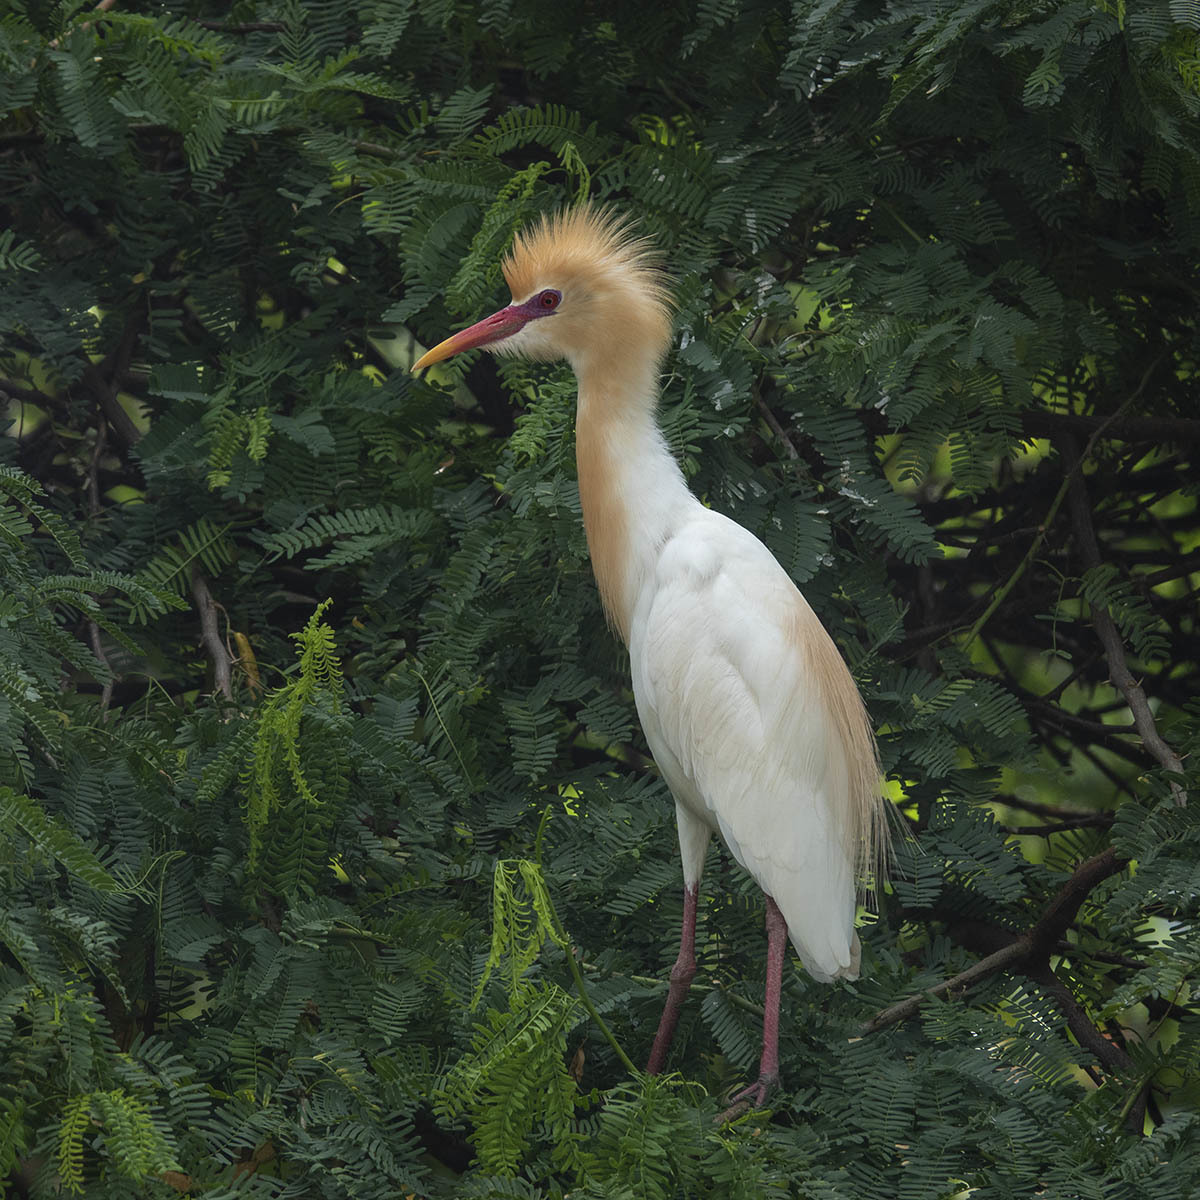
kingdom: Animalia
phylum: Chordata
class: Aves
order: Pelecaniformes
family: Ardeidae
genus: Bubulcus
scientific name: Bubulcus coromandus
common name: Eastern cattle egret
